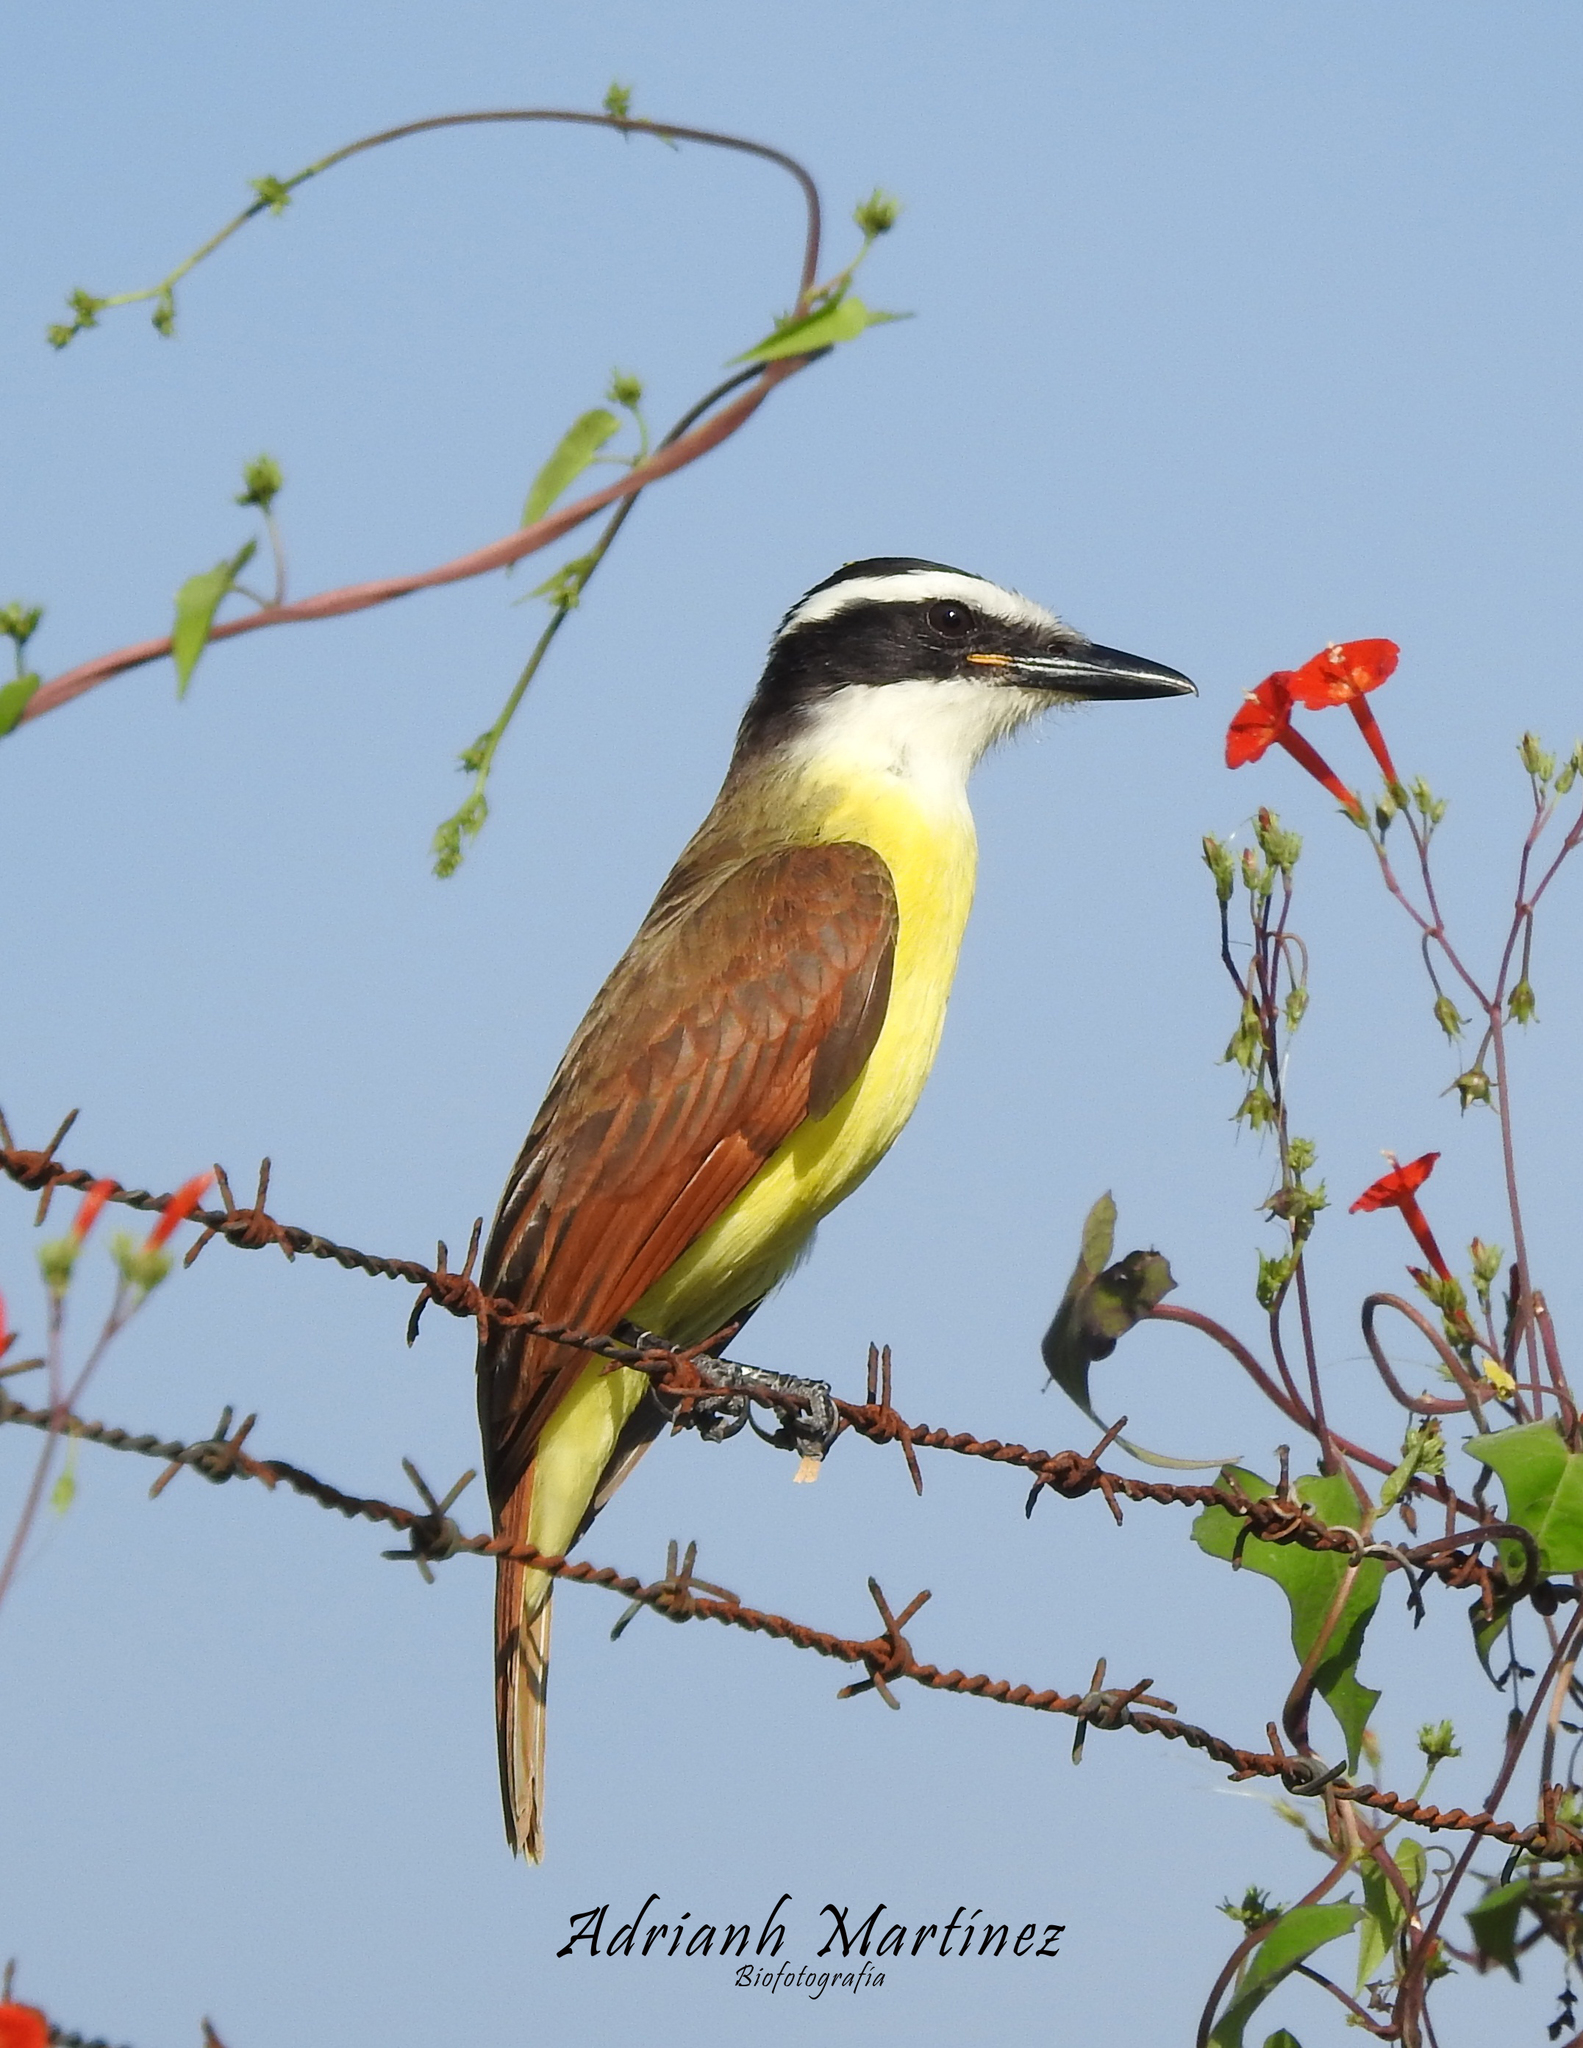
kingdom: Animalia
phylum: Chordata
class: Aves
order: Passeriformes
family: Tyrannidae
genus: Pitangus
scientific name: Pitangus sulphuratus
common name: Great kiskadee
